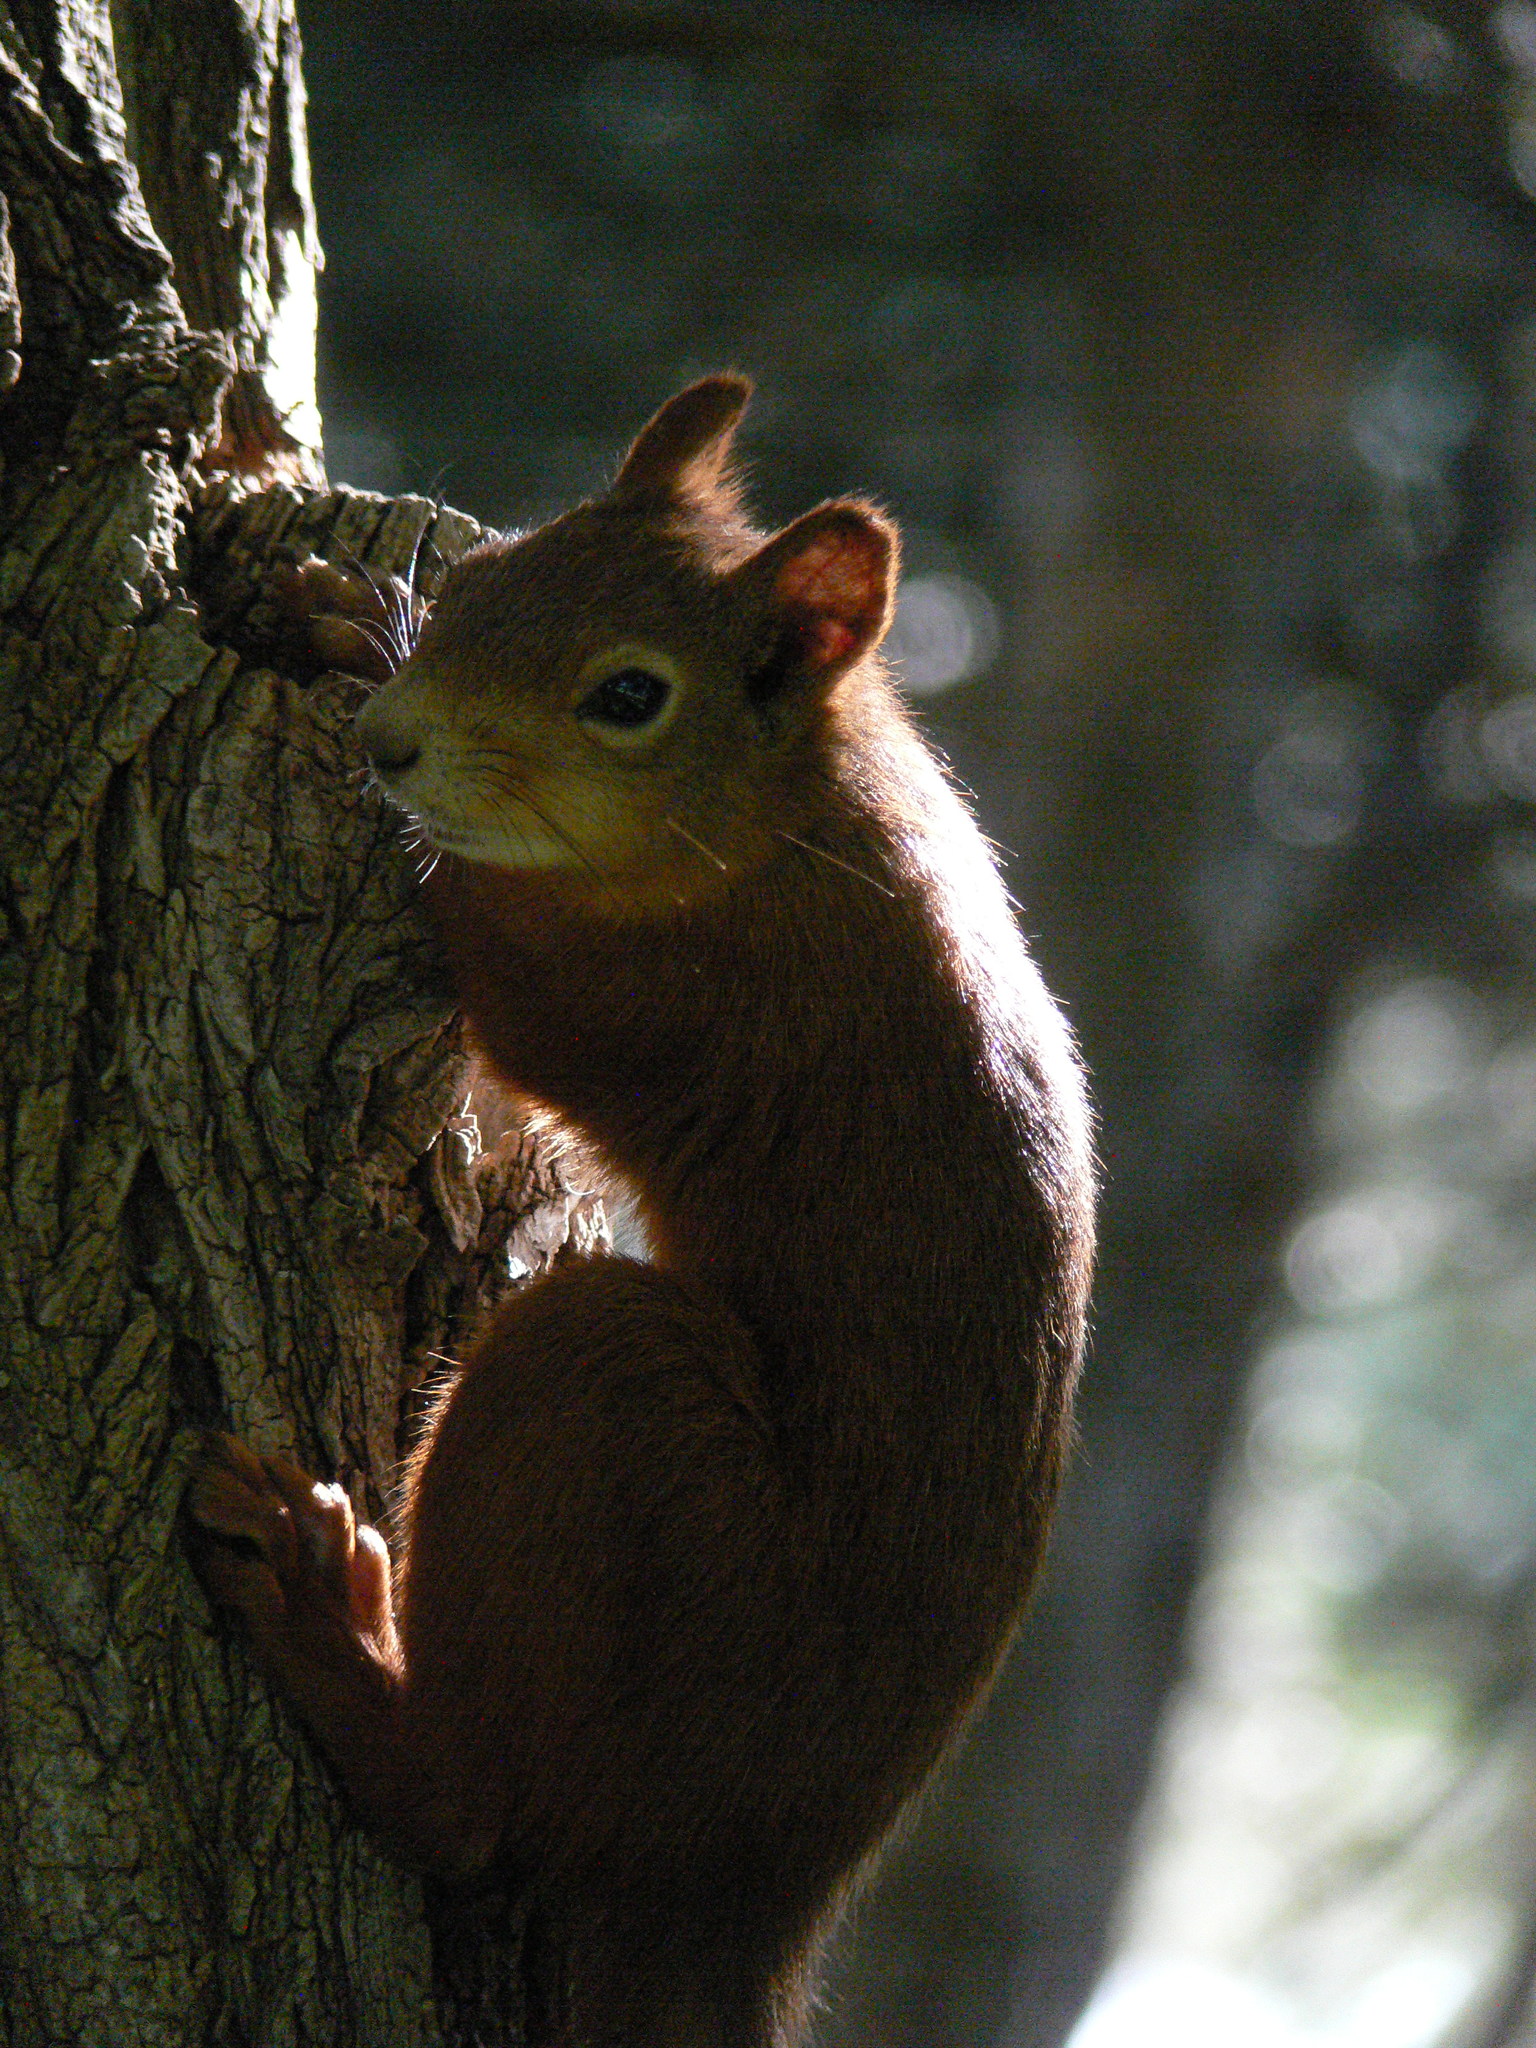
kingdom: Animalia
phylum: Chordata
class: Mammalia
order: Rodentia
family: Sciuridae
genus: Sciurus
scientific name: Sciurus vulgaris
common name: Eurasian red squirrel
